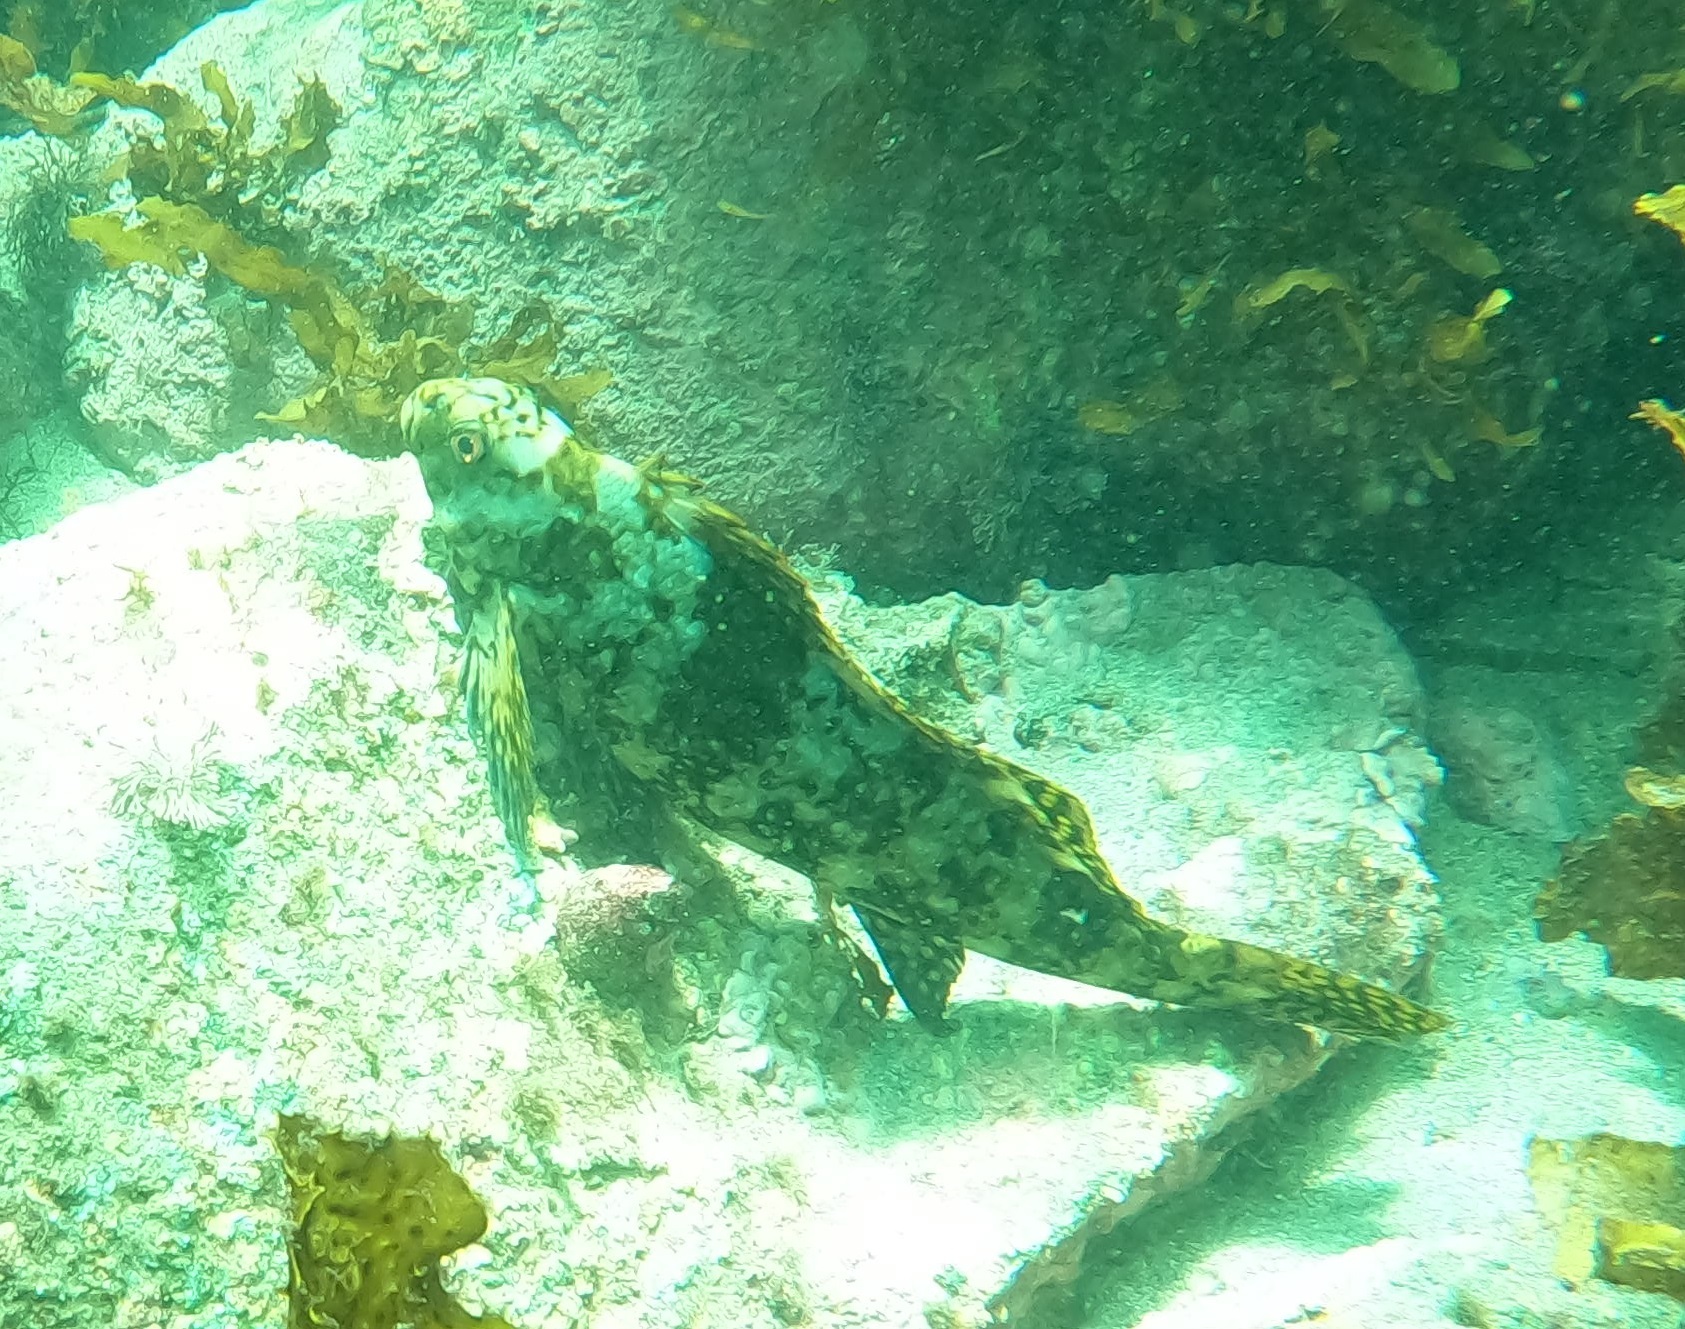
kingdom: Animalia
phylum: Chordata
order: Perciformes
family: Aplodactylidae
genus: Aplodactylus
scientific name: Aplodactylus lophodon
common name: Cockatoo fish
